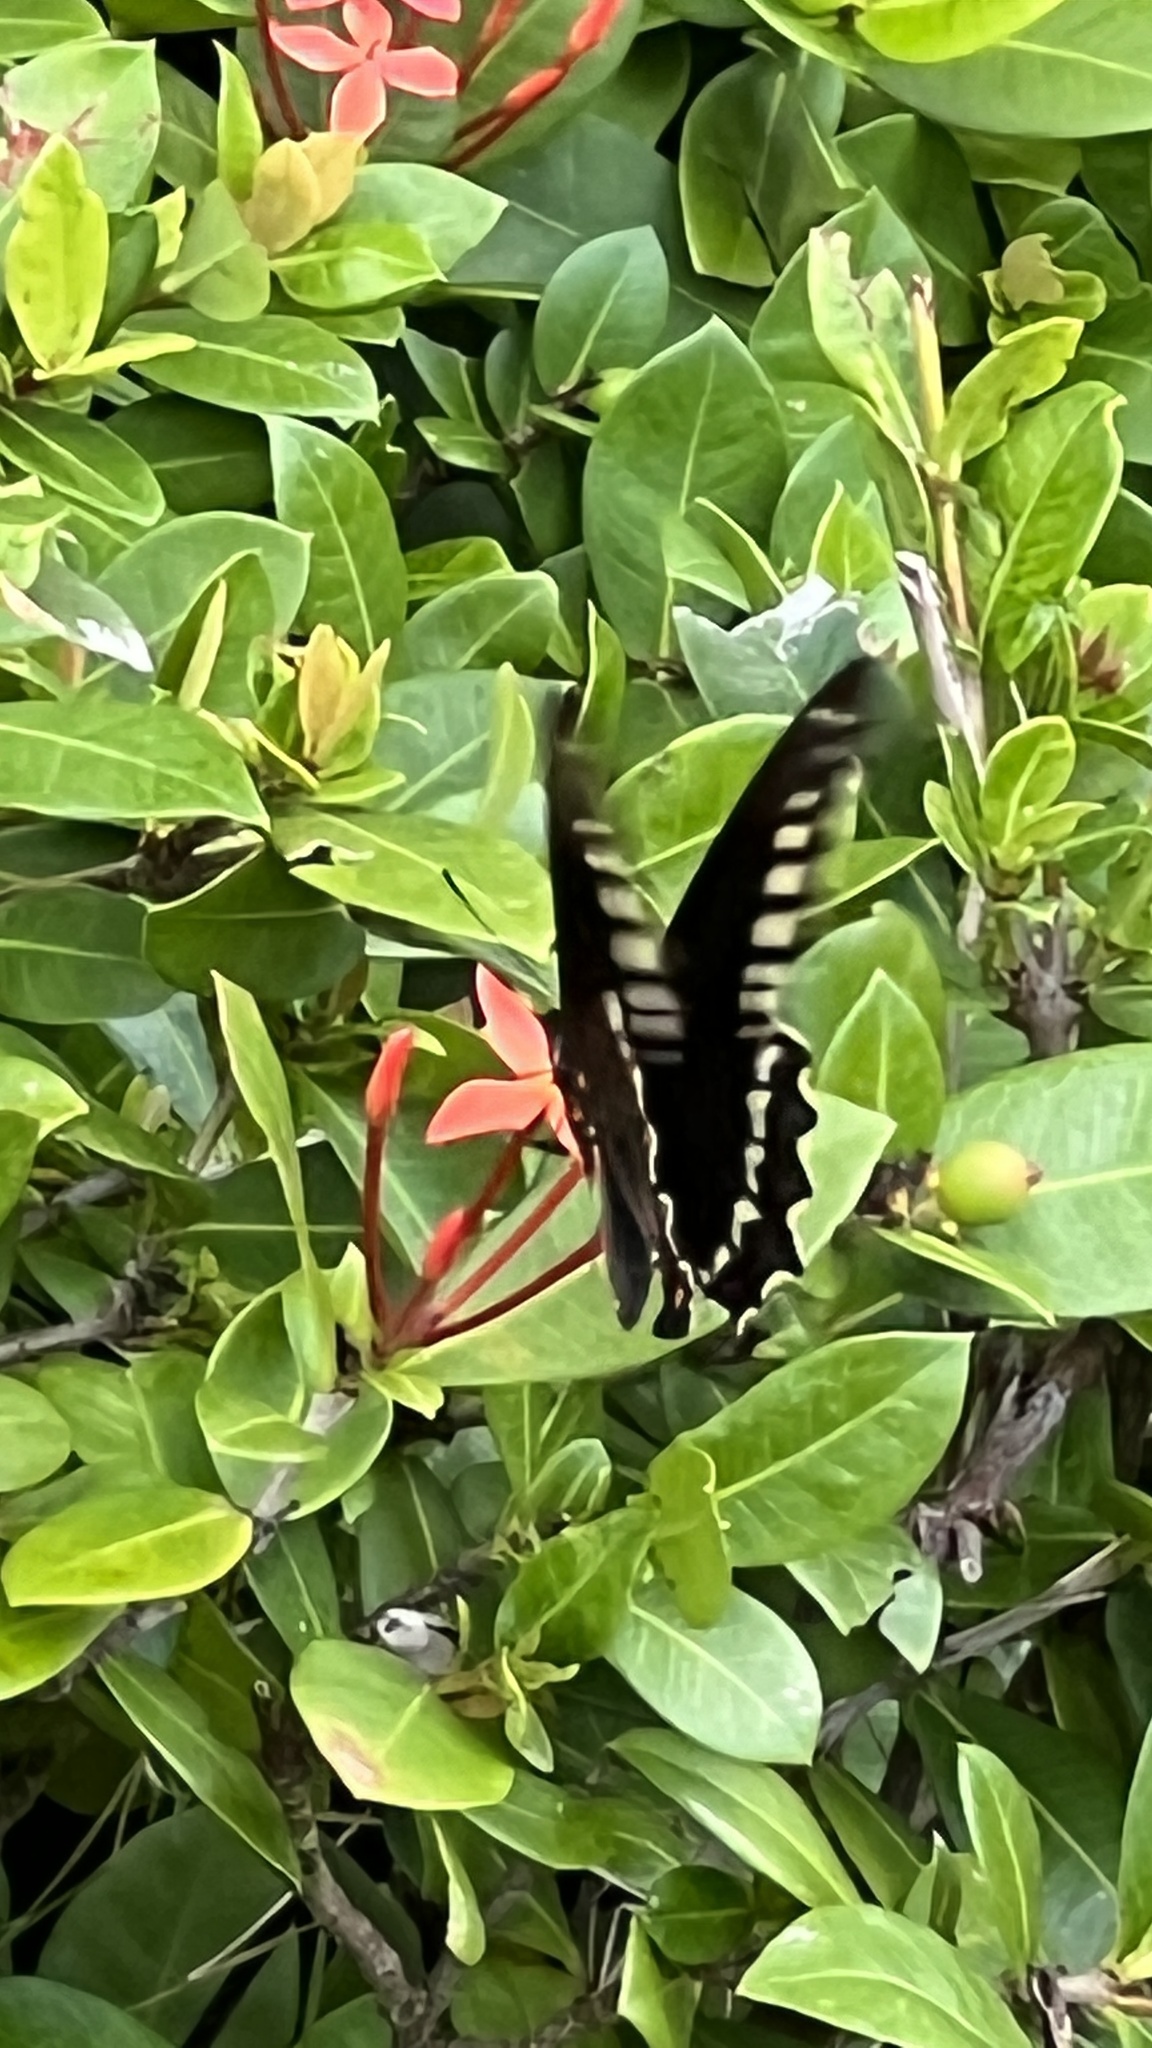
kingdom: Animalia
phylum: Arthropoda
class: Insecta
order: Lepidoptera
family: Papilionidae
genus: Battus
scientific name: Battus polydamas
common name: Polydamas swallowtail
